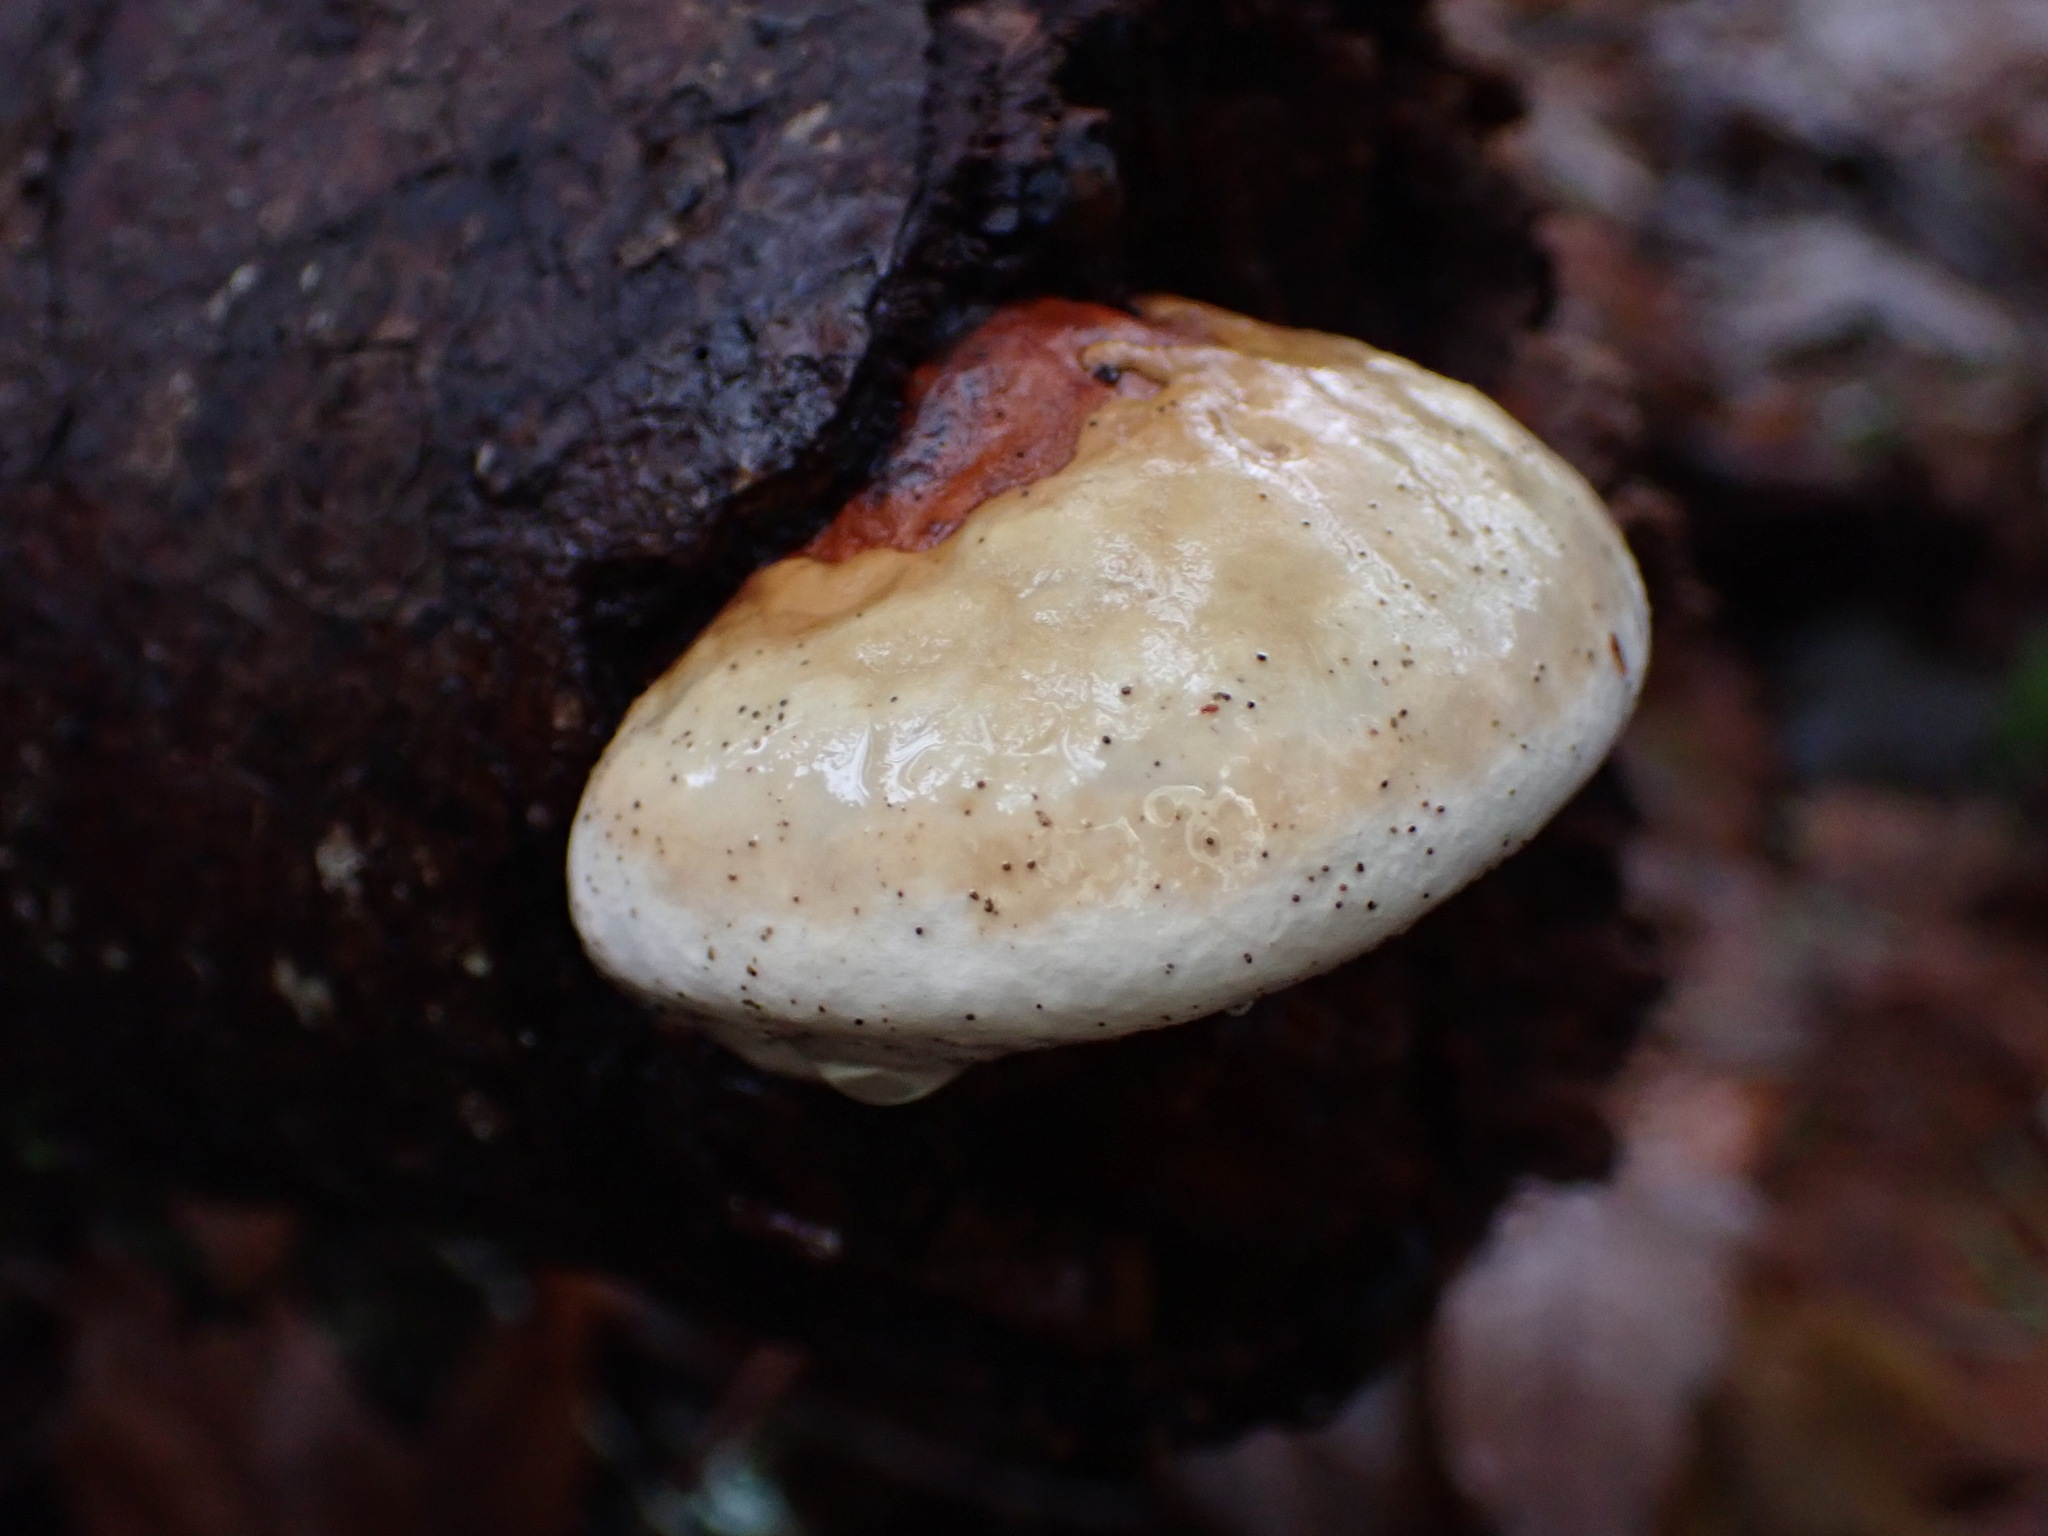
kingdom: Fungi
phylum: Basidiomycota
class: Agaricomycetes
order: Polyporales
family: Fomitopsidaceae
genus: Fomitopsis
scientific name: Fomitopsis mounceae
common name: Northern red belt
